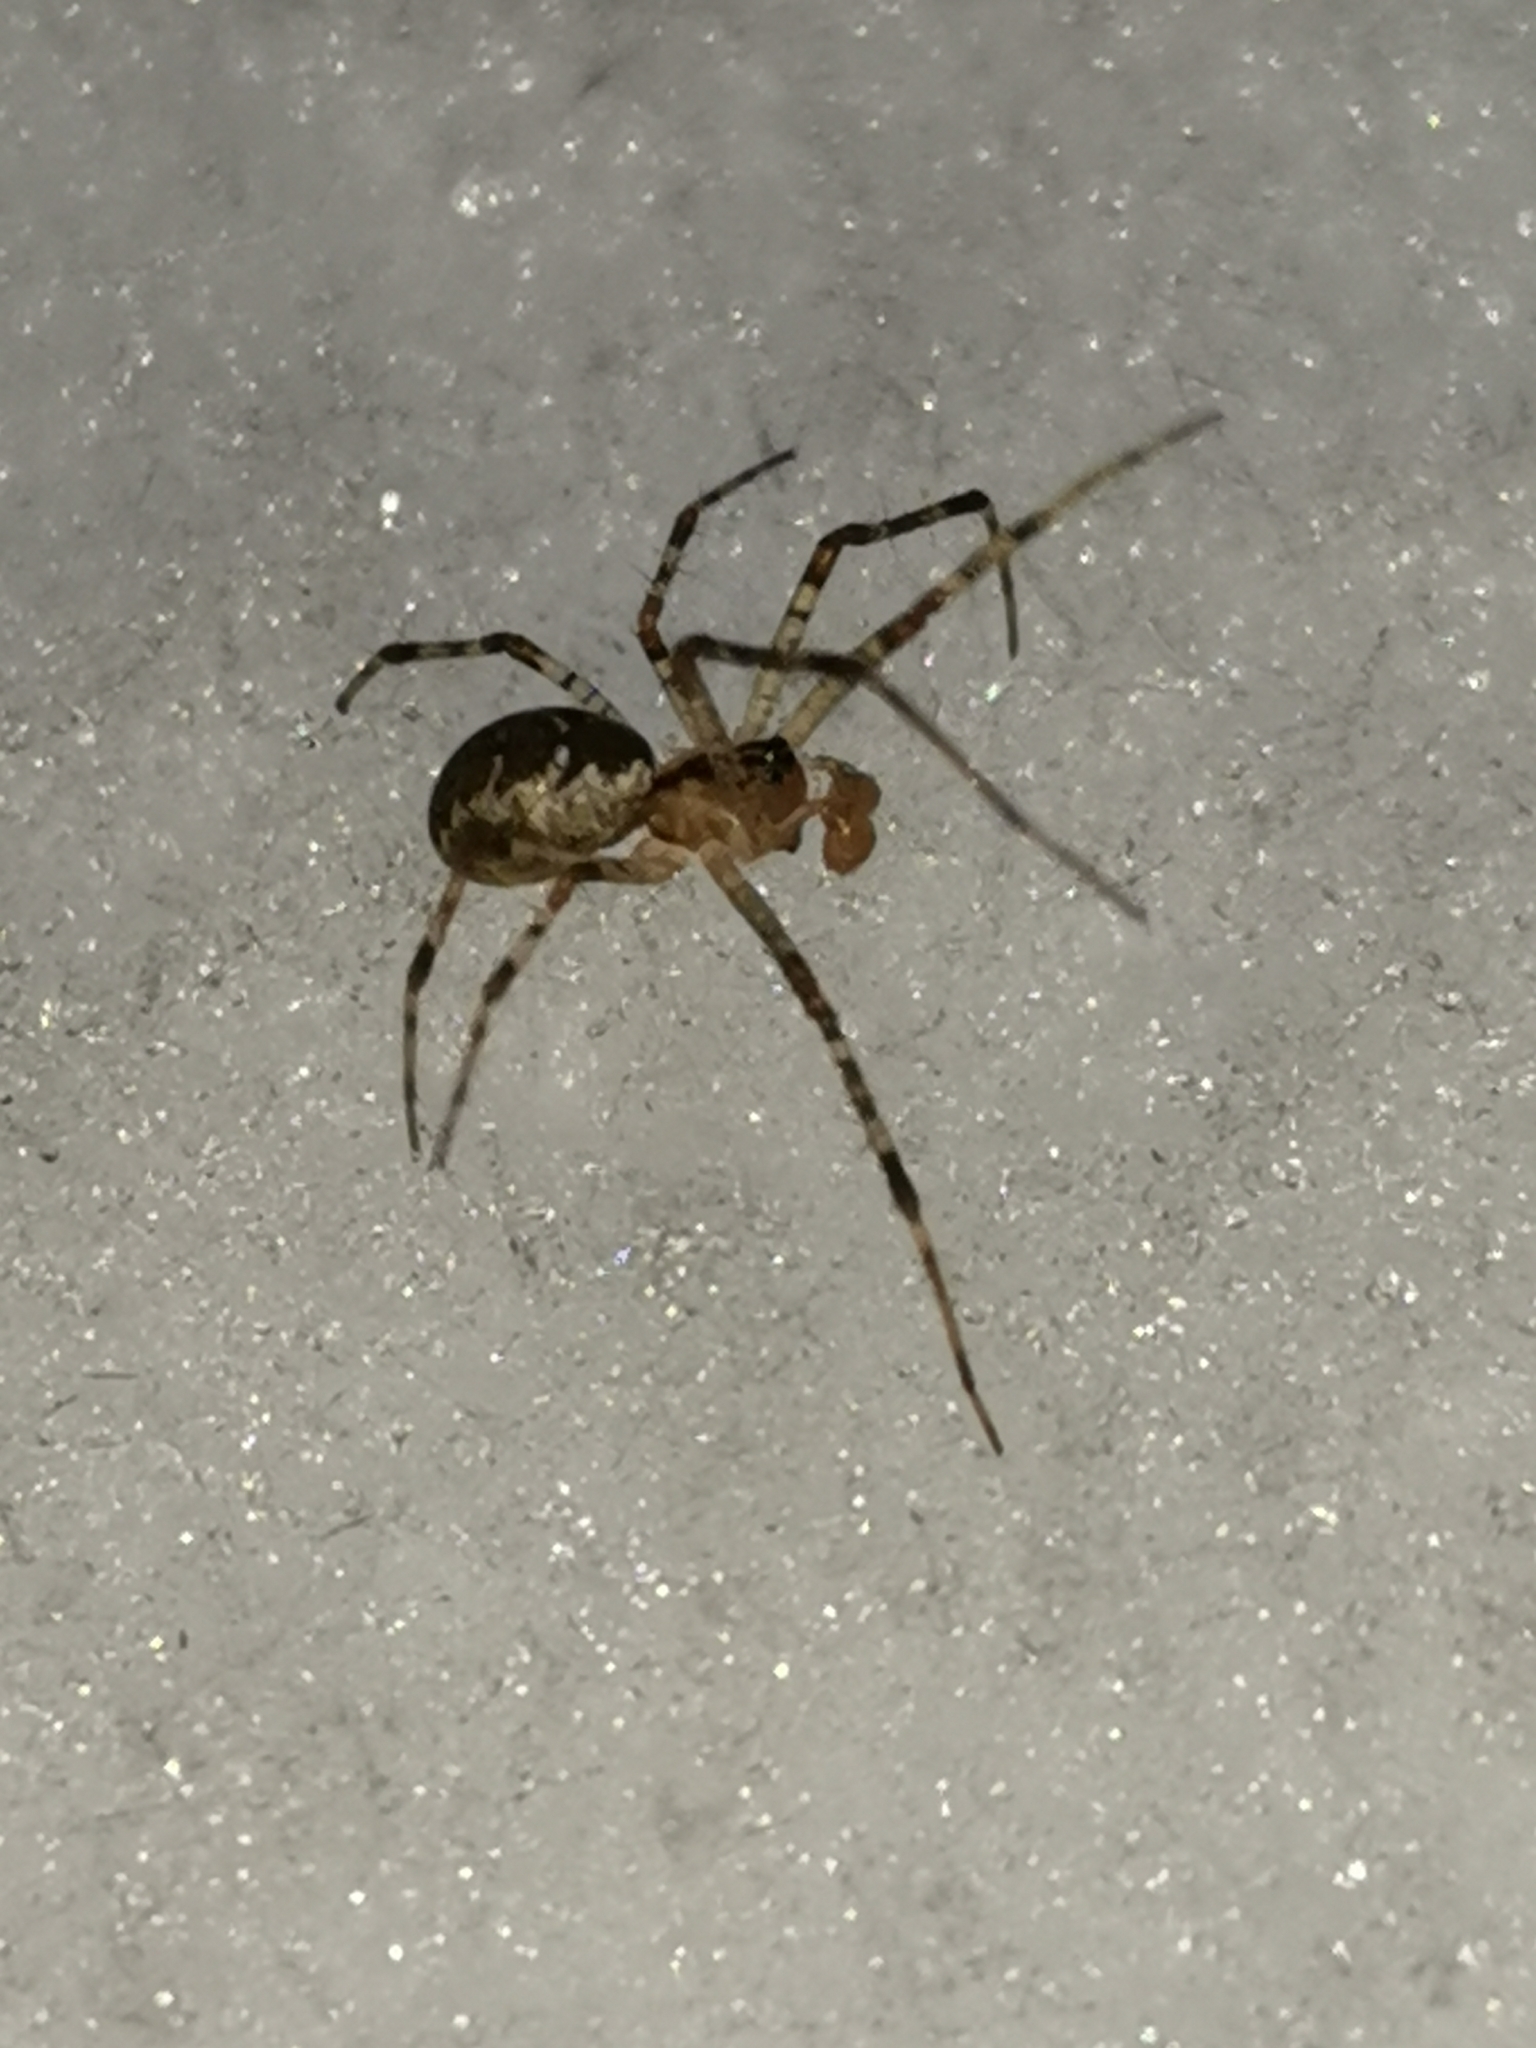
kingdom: Animalia
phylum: Arthropoda
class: Arachnida
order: Araneae
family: Linyphiidae
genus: Pityohyphantes
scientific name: Pityohyphantes phrygianus
